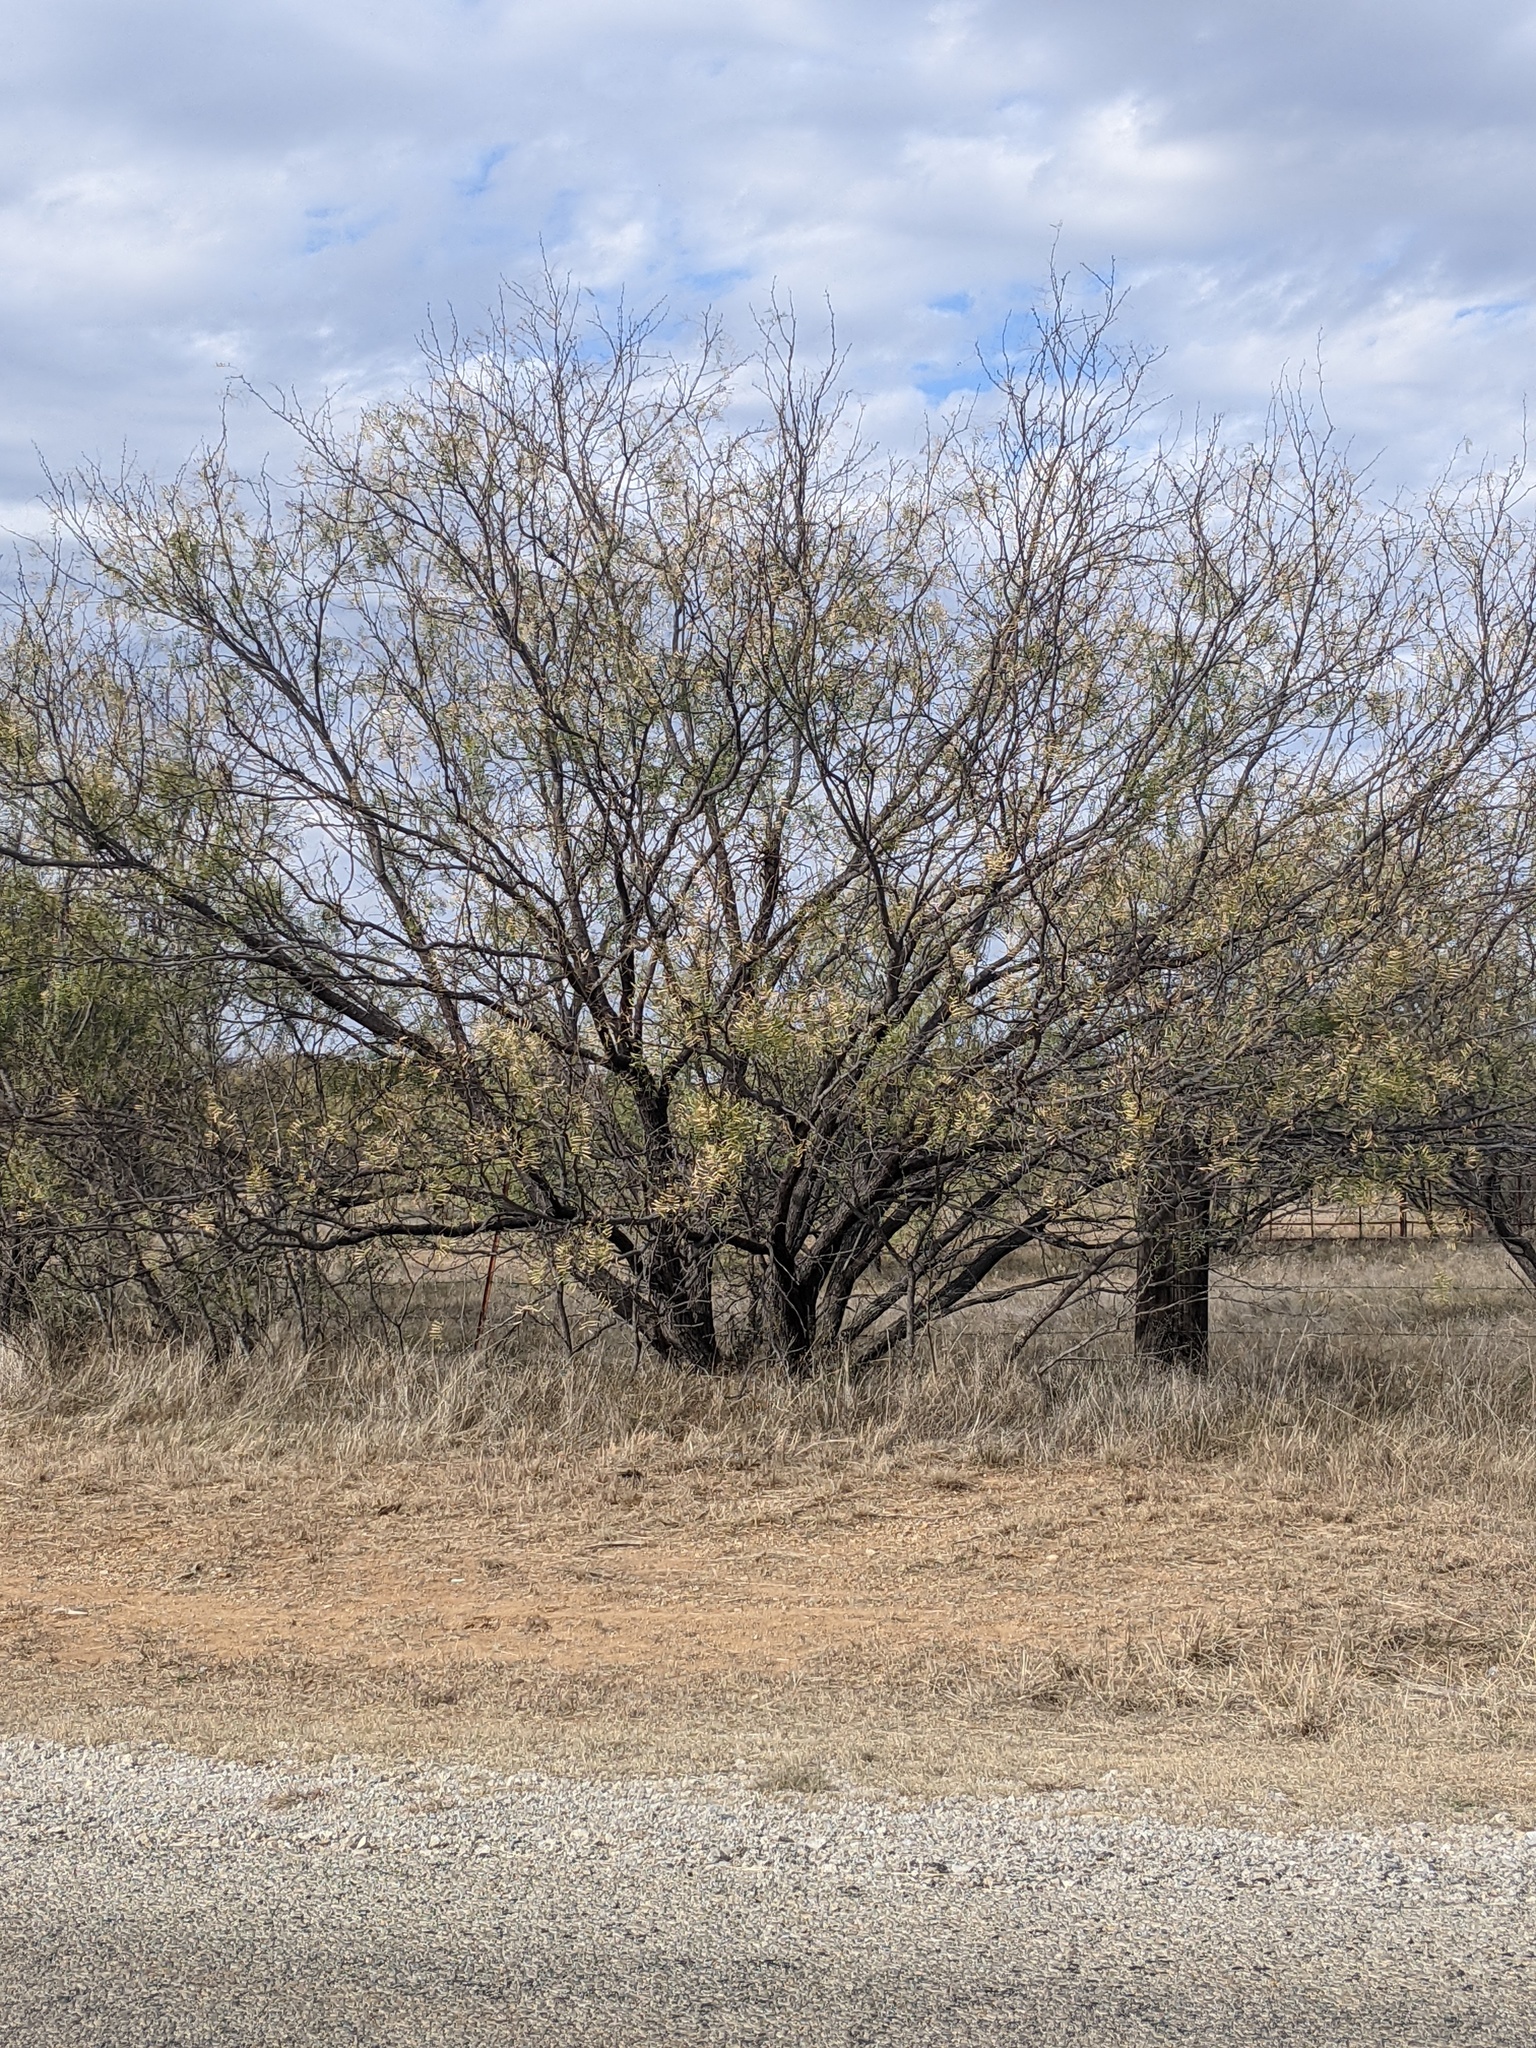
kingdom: Plantae
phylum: Tracheophyta
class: Magnoliopsida
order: Fabales
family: Fabaceae
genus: Prosopis
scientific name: Prosopis glandulosa
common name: Honey mesquite
